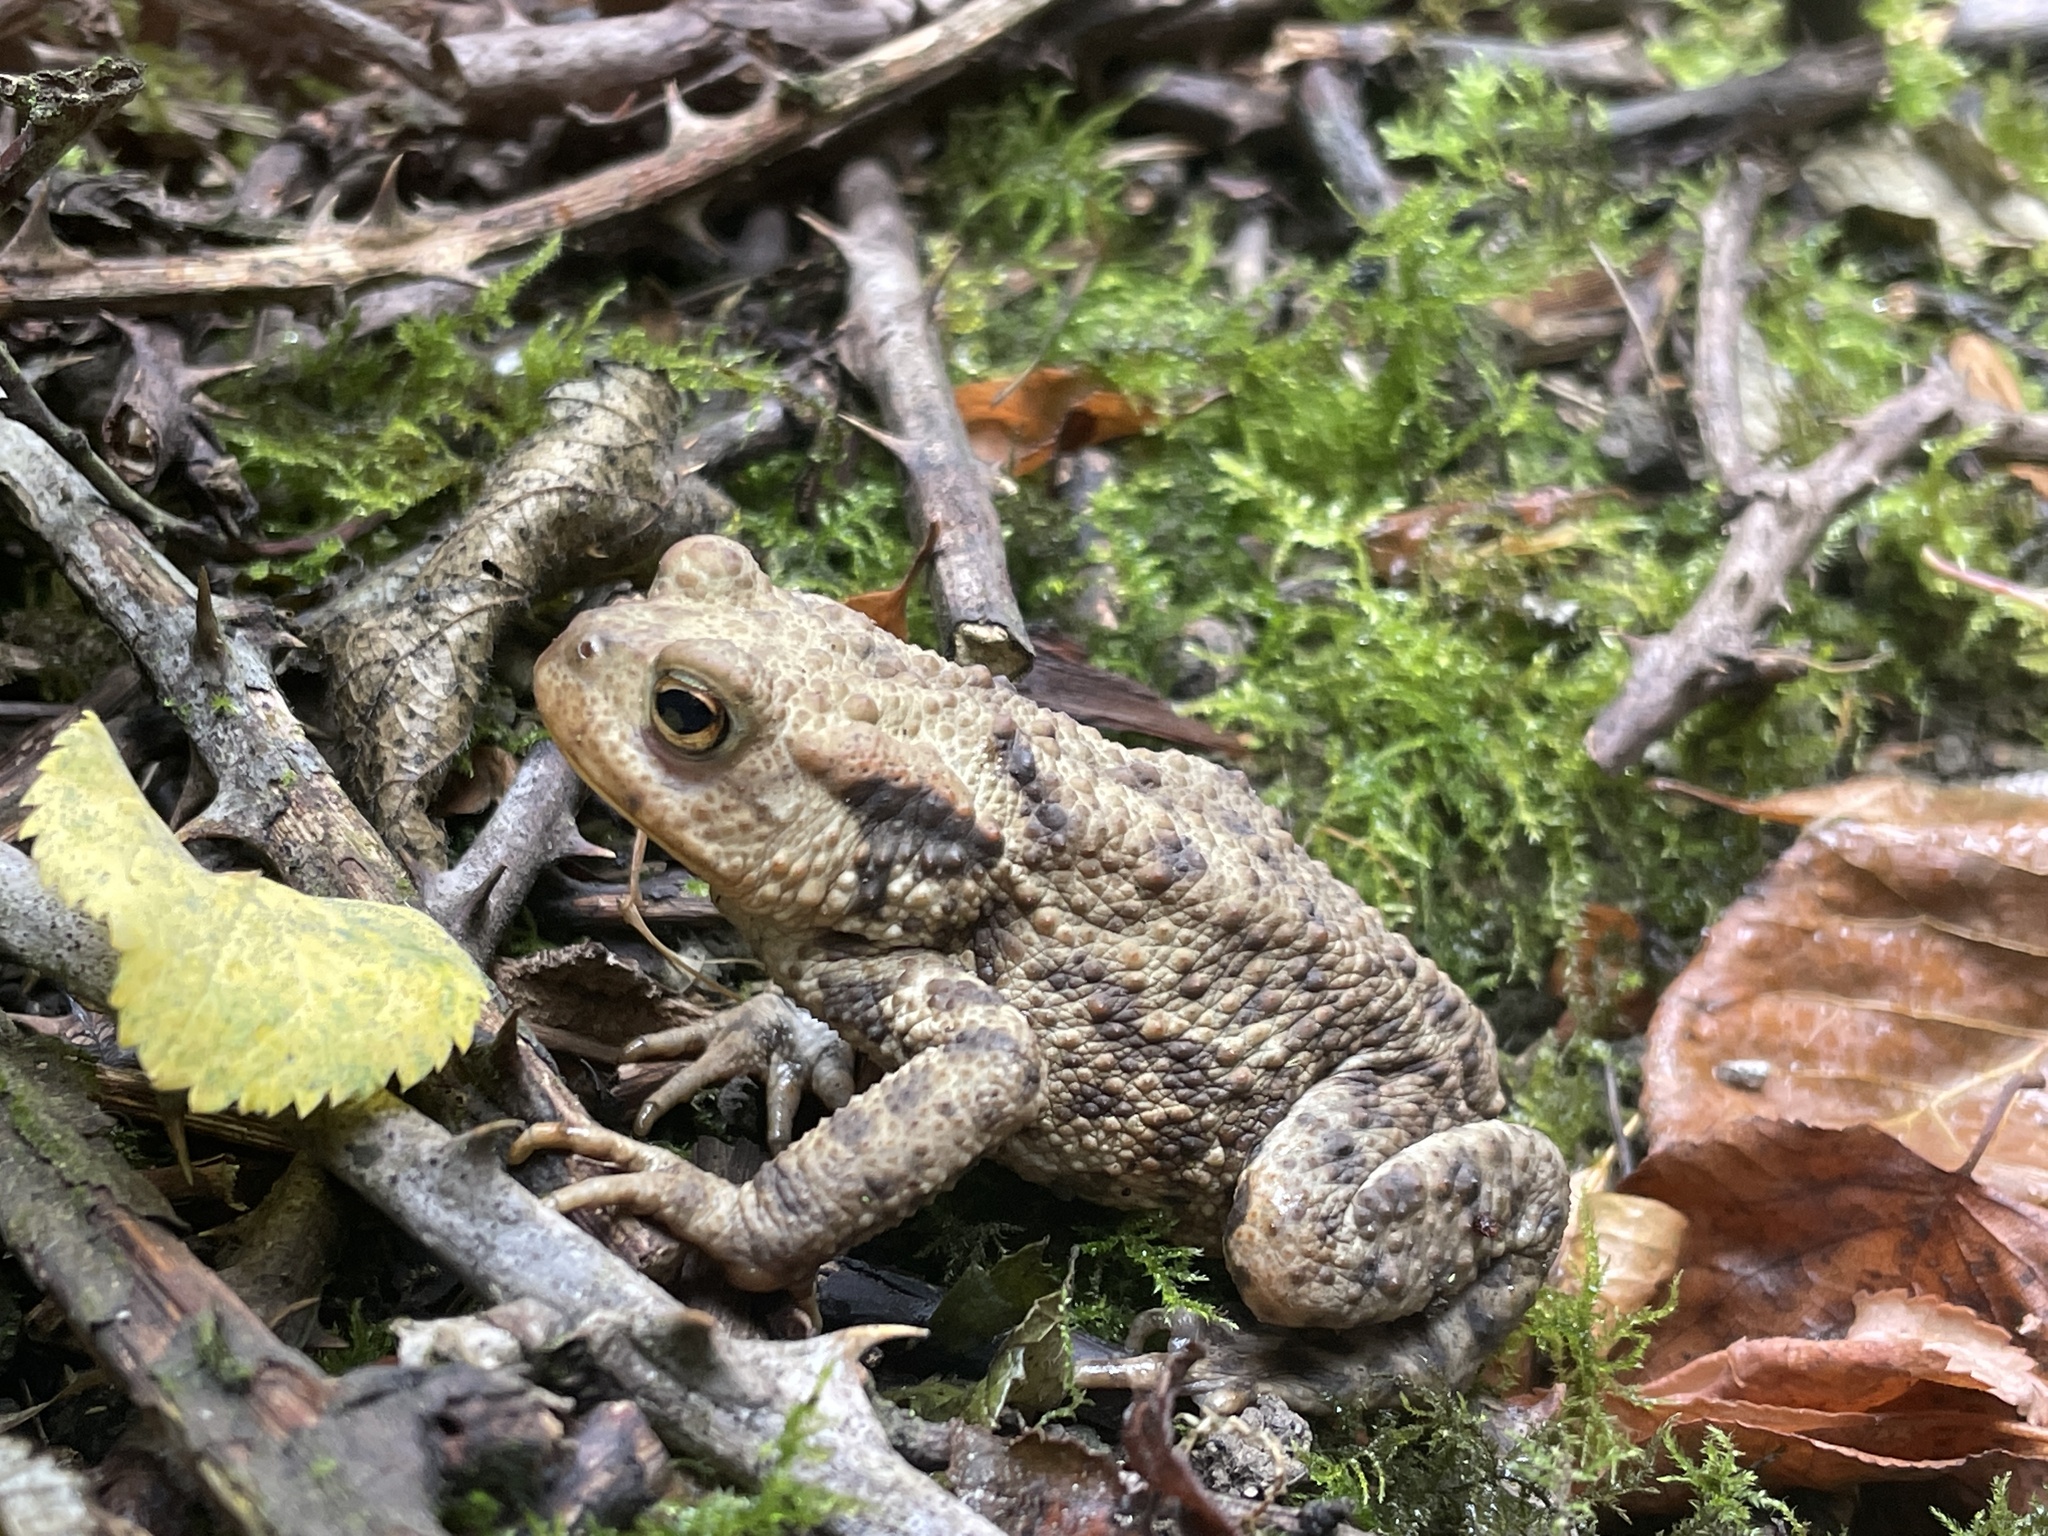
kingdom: Animalia
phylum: Chordata
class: Amphibia
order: Anura
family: Bufonidae
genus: Bufo
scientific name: Bufo bufo
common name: Common toad
